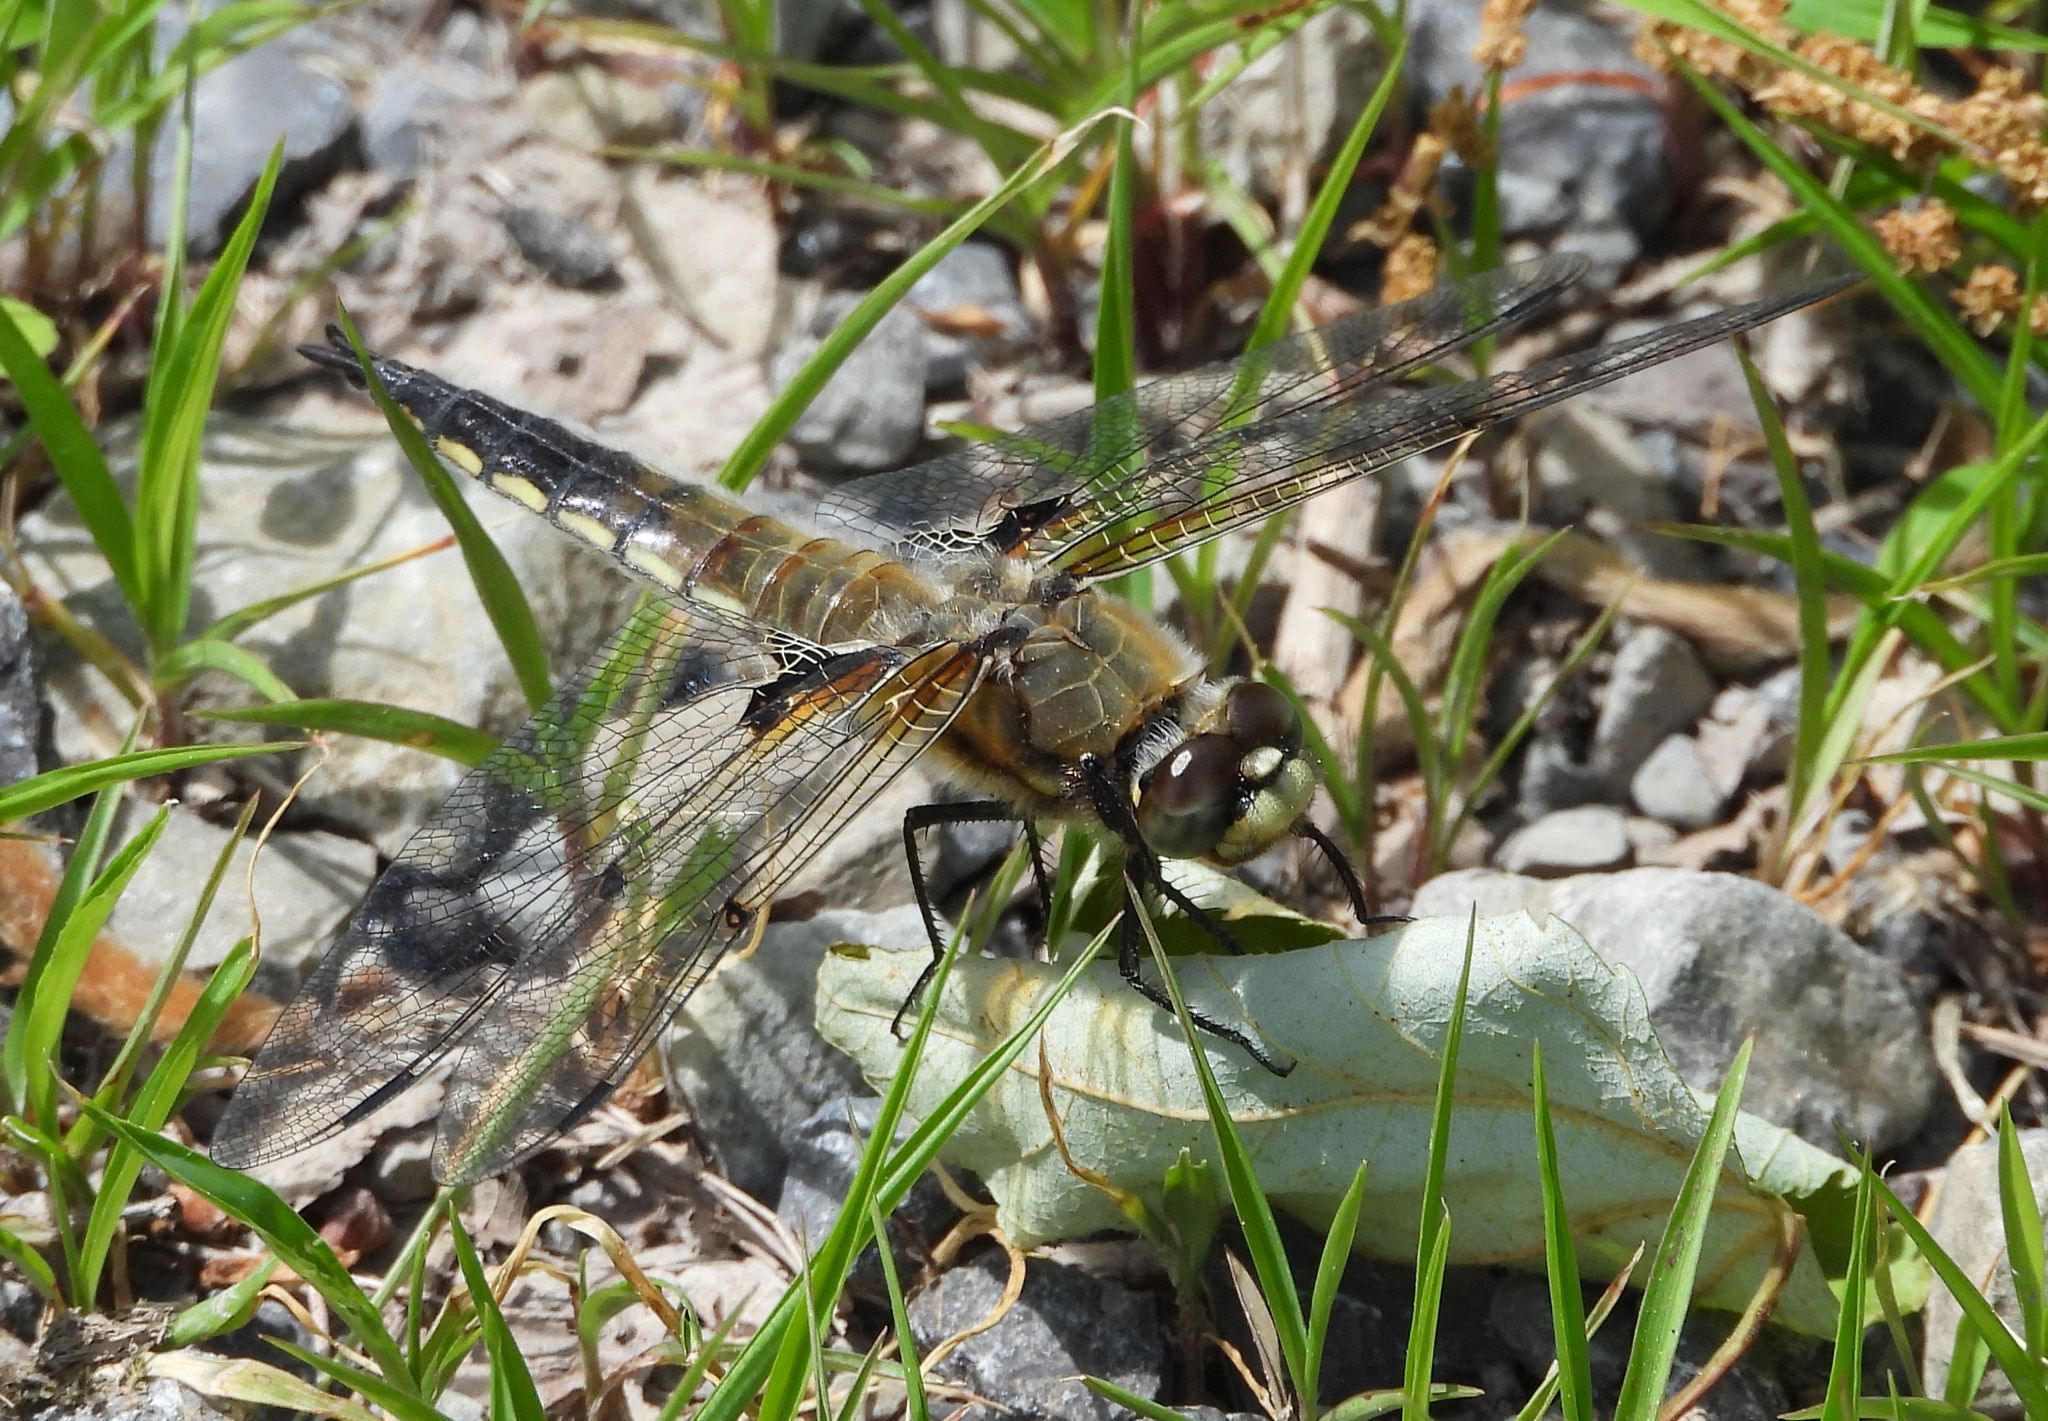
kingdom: Animalia
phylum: Arthropoda
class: Insecta
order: Odonata
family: Libellulidae
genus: Libellula
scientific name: Libellula quadrimaculata
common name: Four-spotted chaser
